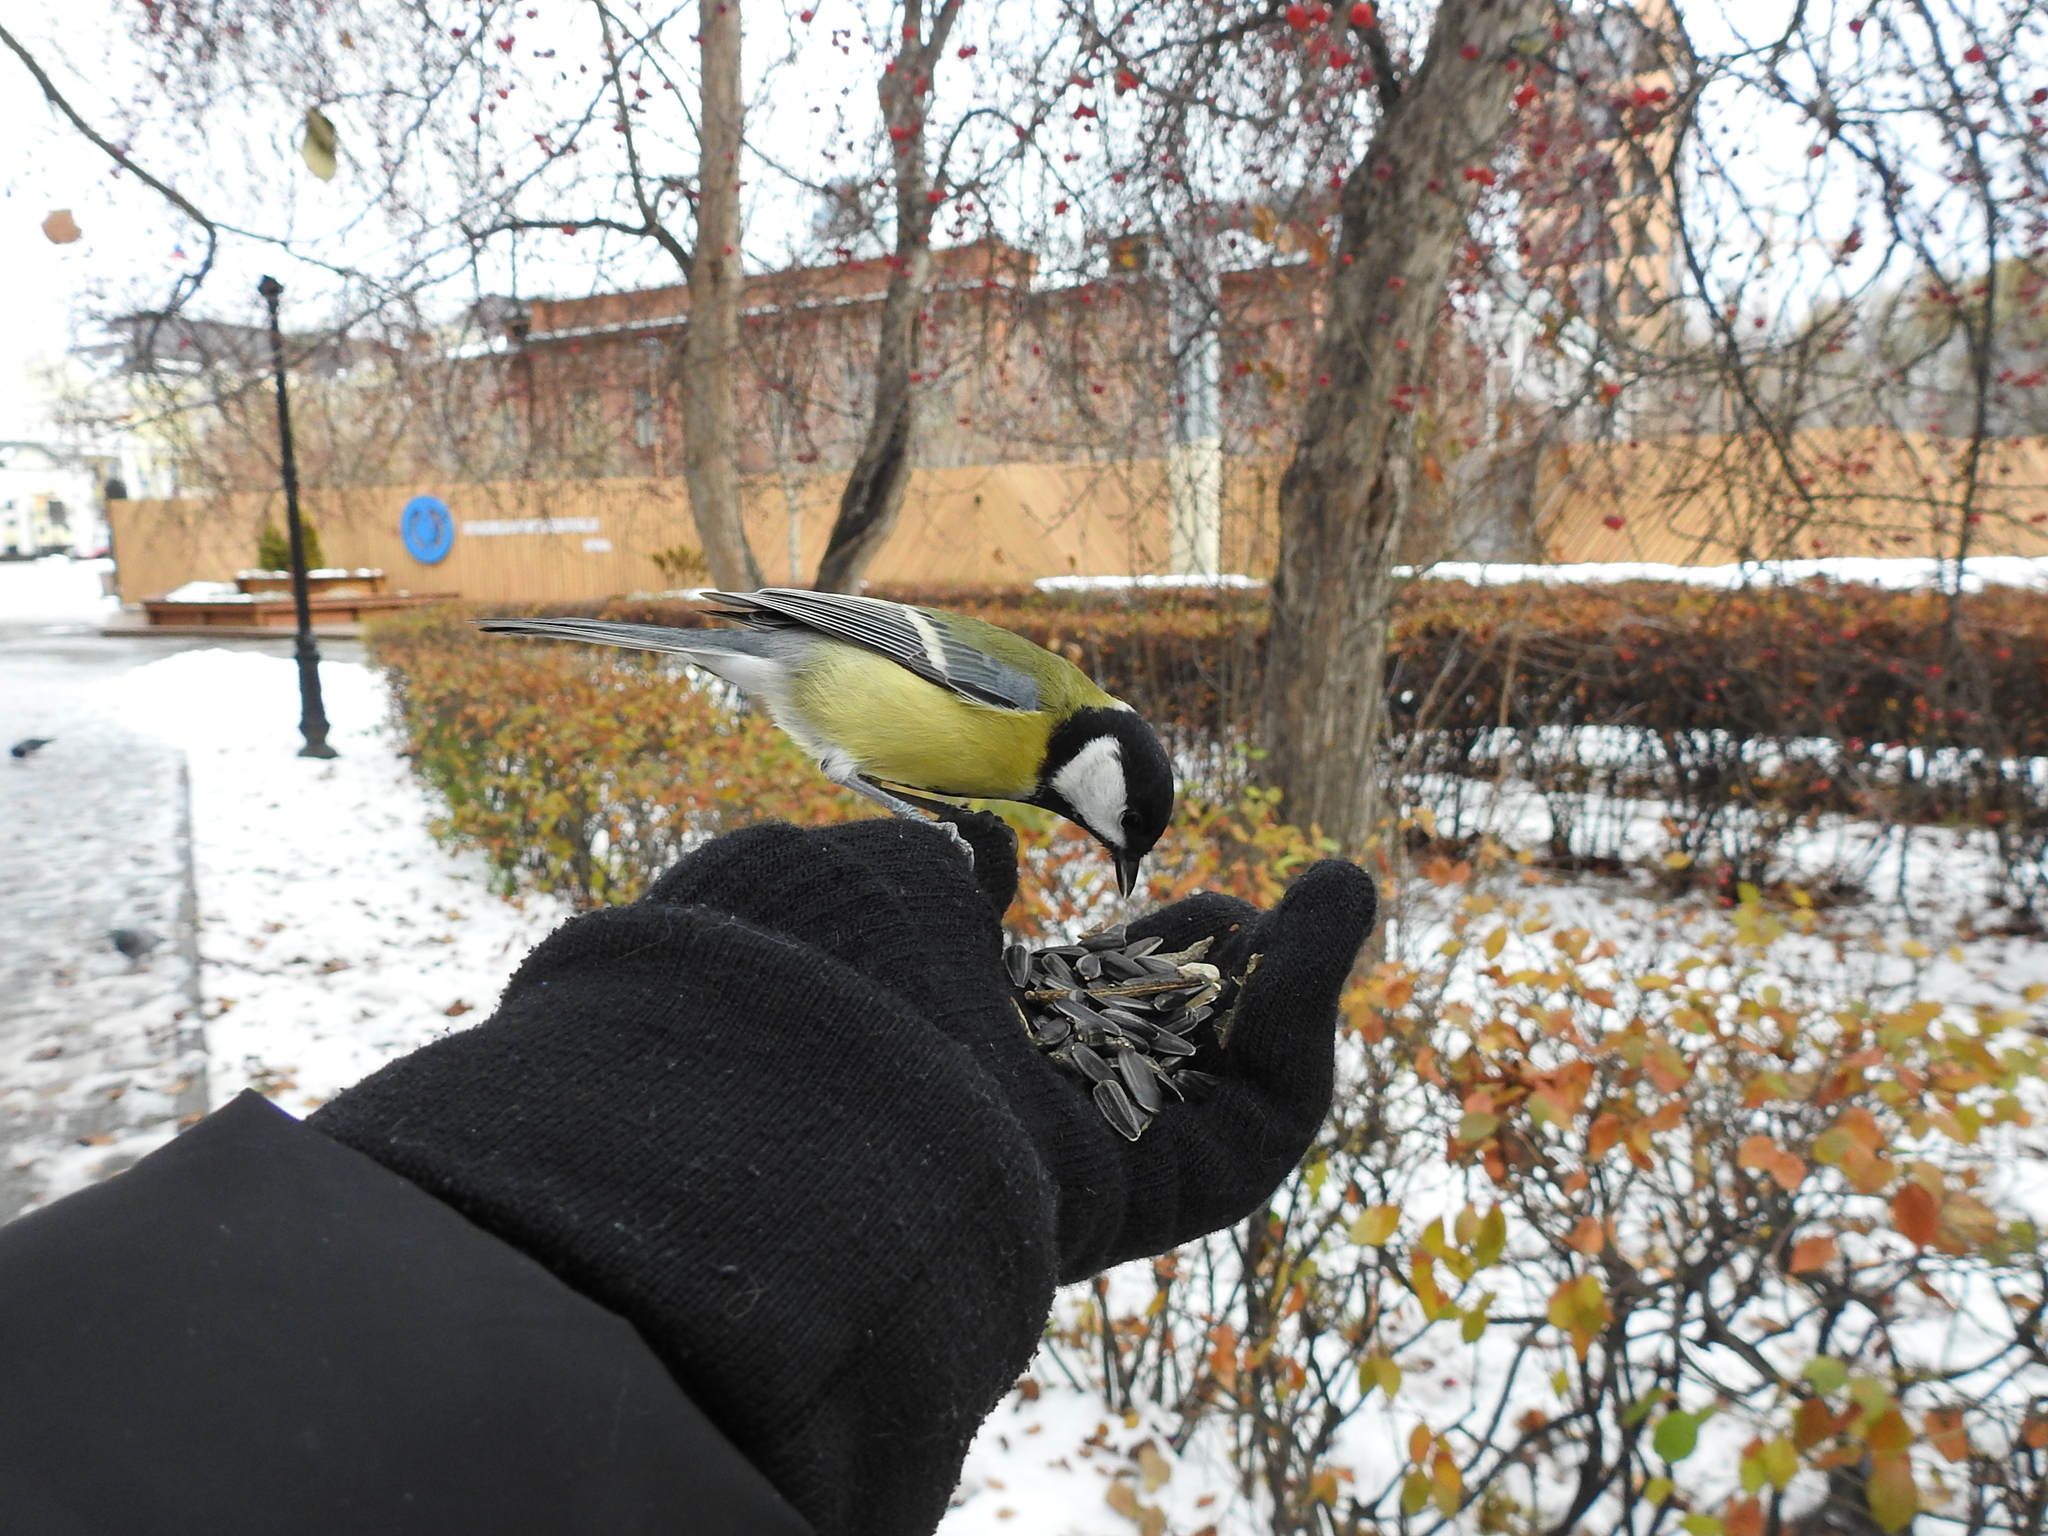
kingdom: Animalia
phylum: Chordata
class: Aves
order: Passeriformes
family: Paridae
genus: Parus
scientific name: Parus major
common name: Great tit
